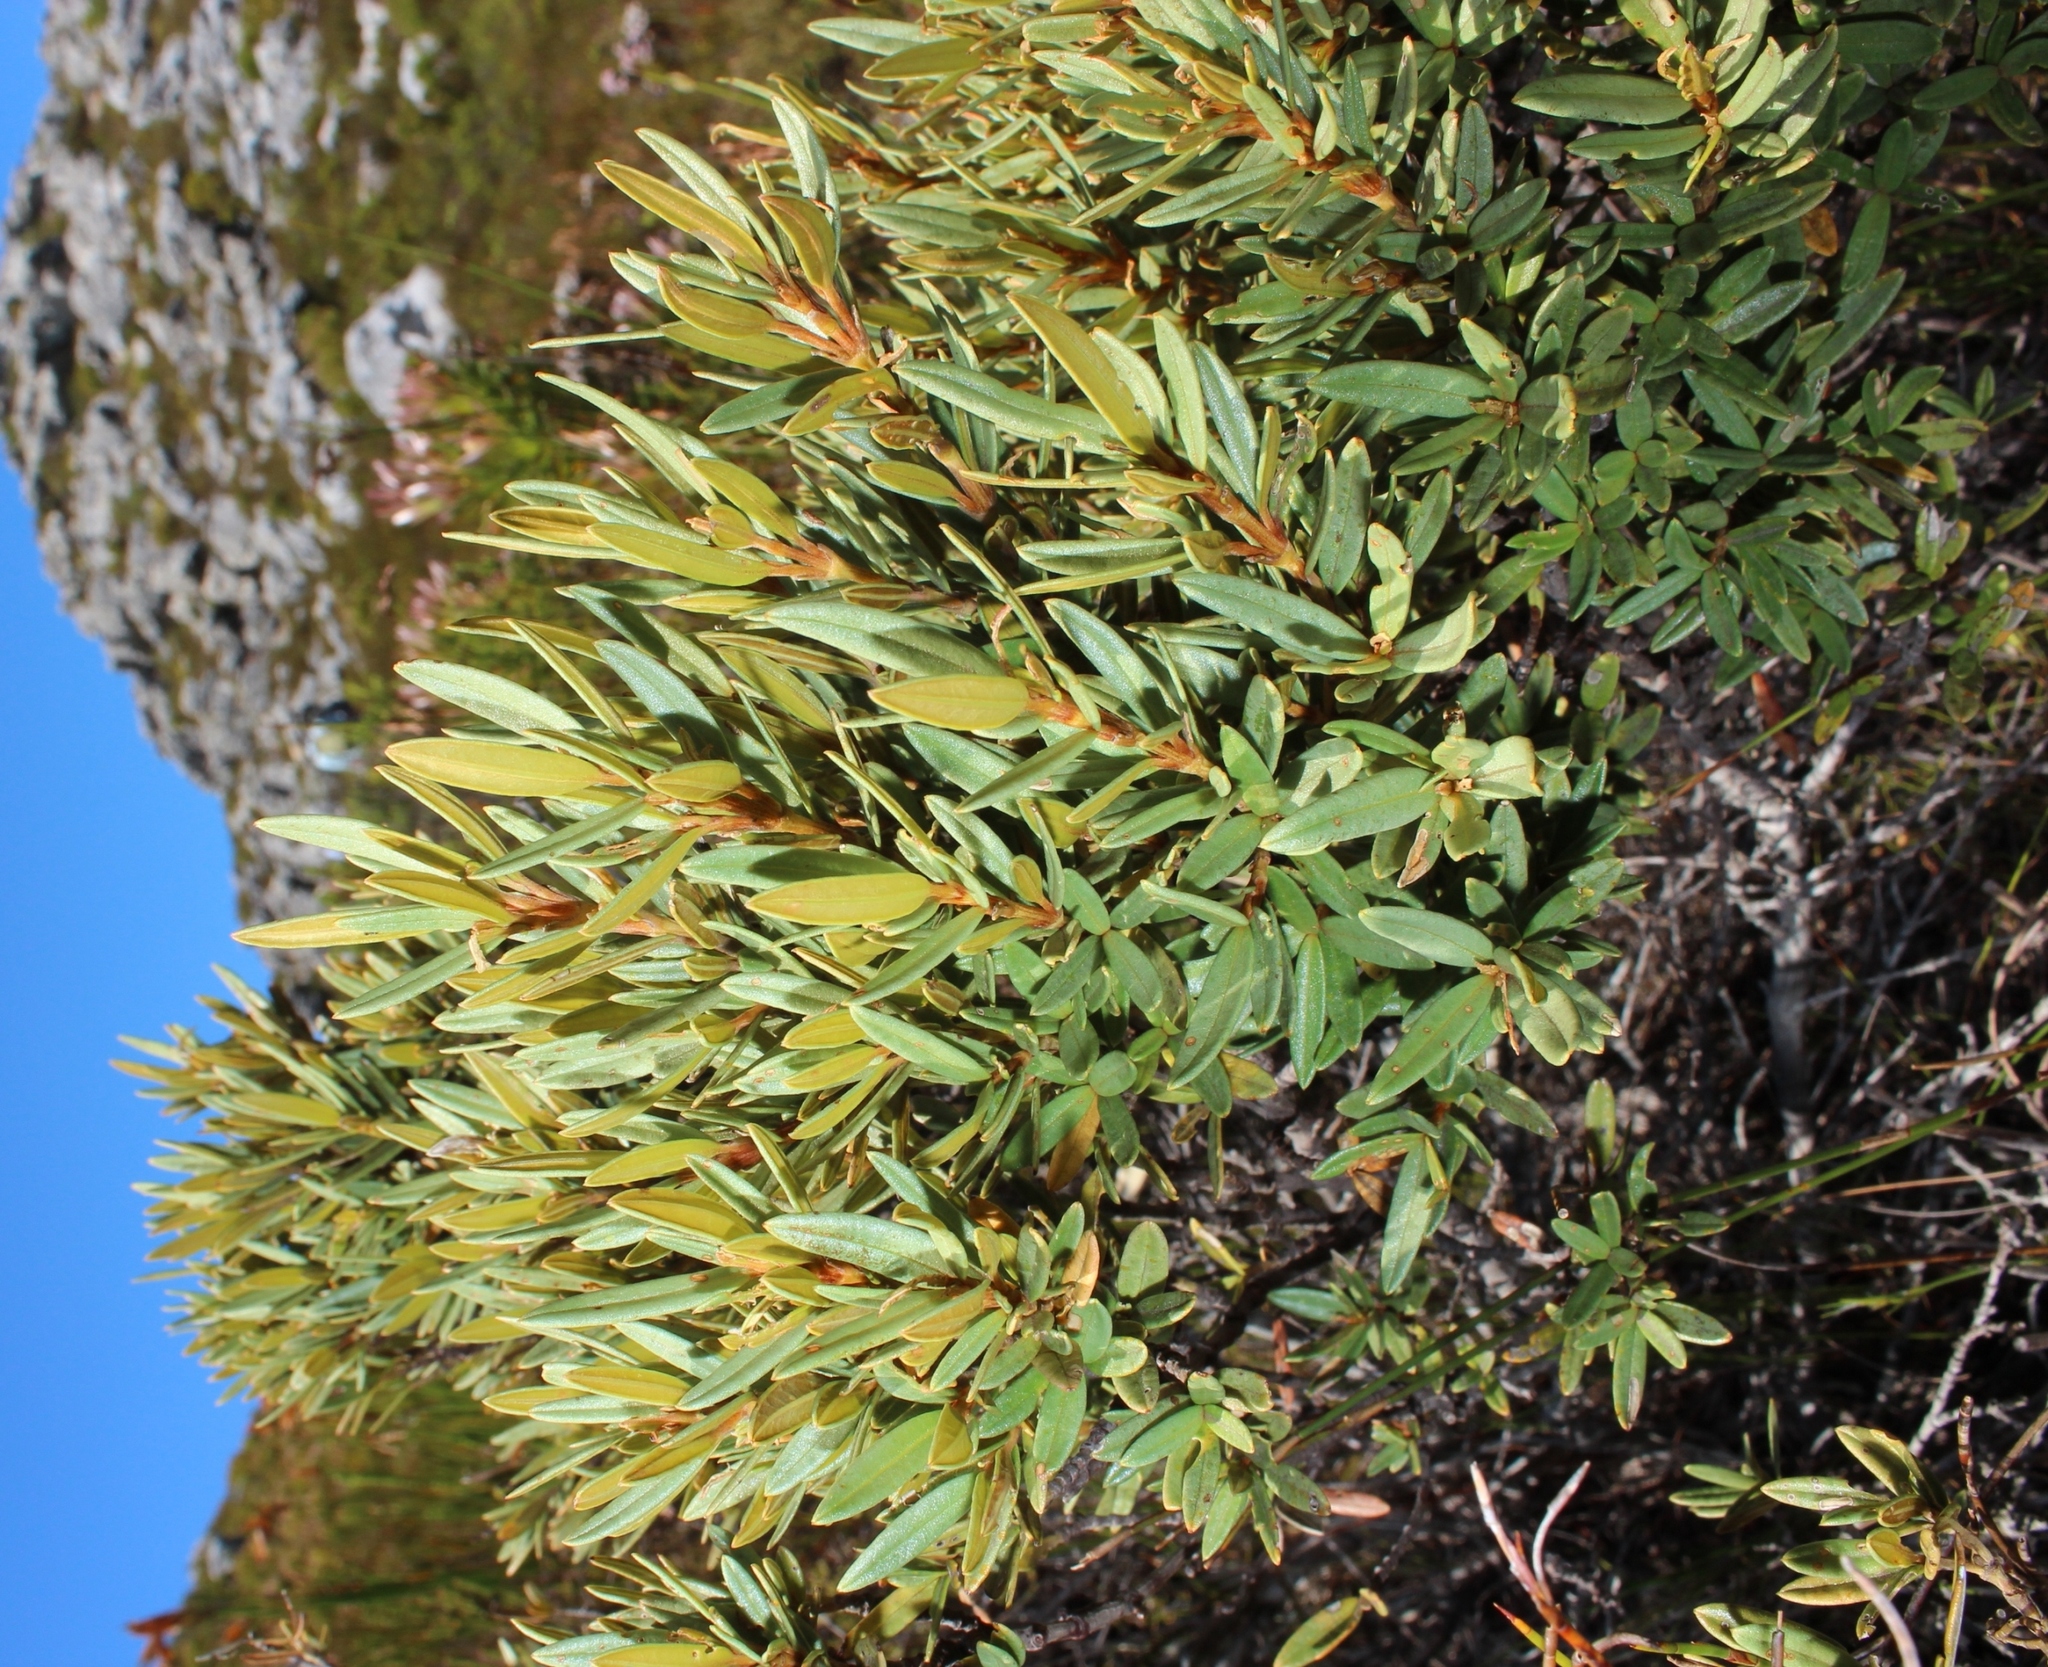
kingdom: Plantae
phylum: Tracheophyta
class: Magnoliopsida
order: Cornales
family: Grubbiaceae
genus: Grubbia
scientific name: Grubbia tomentosa
